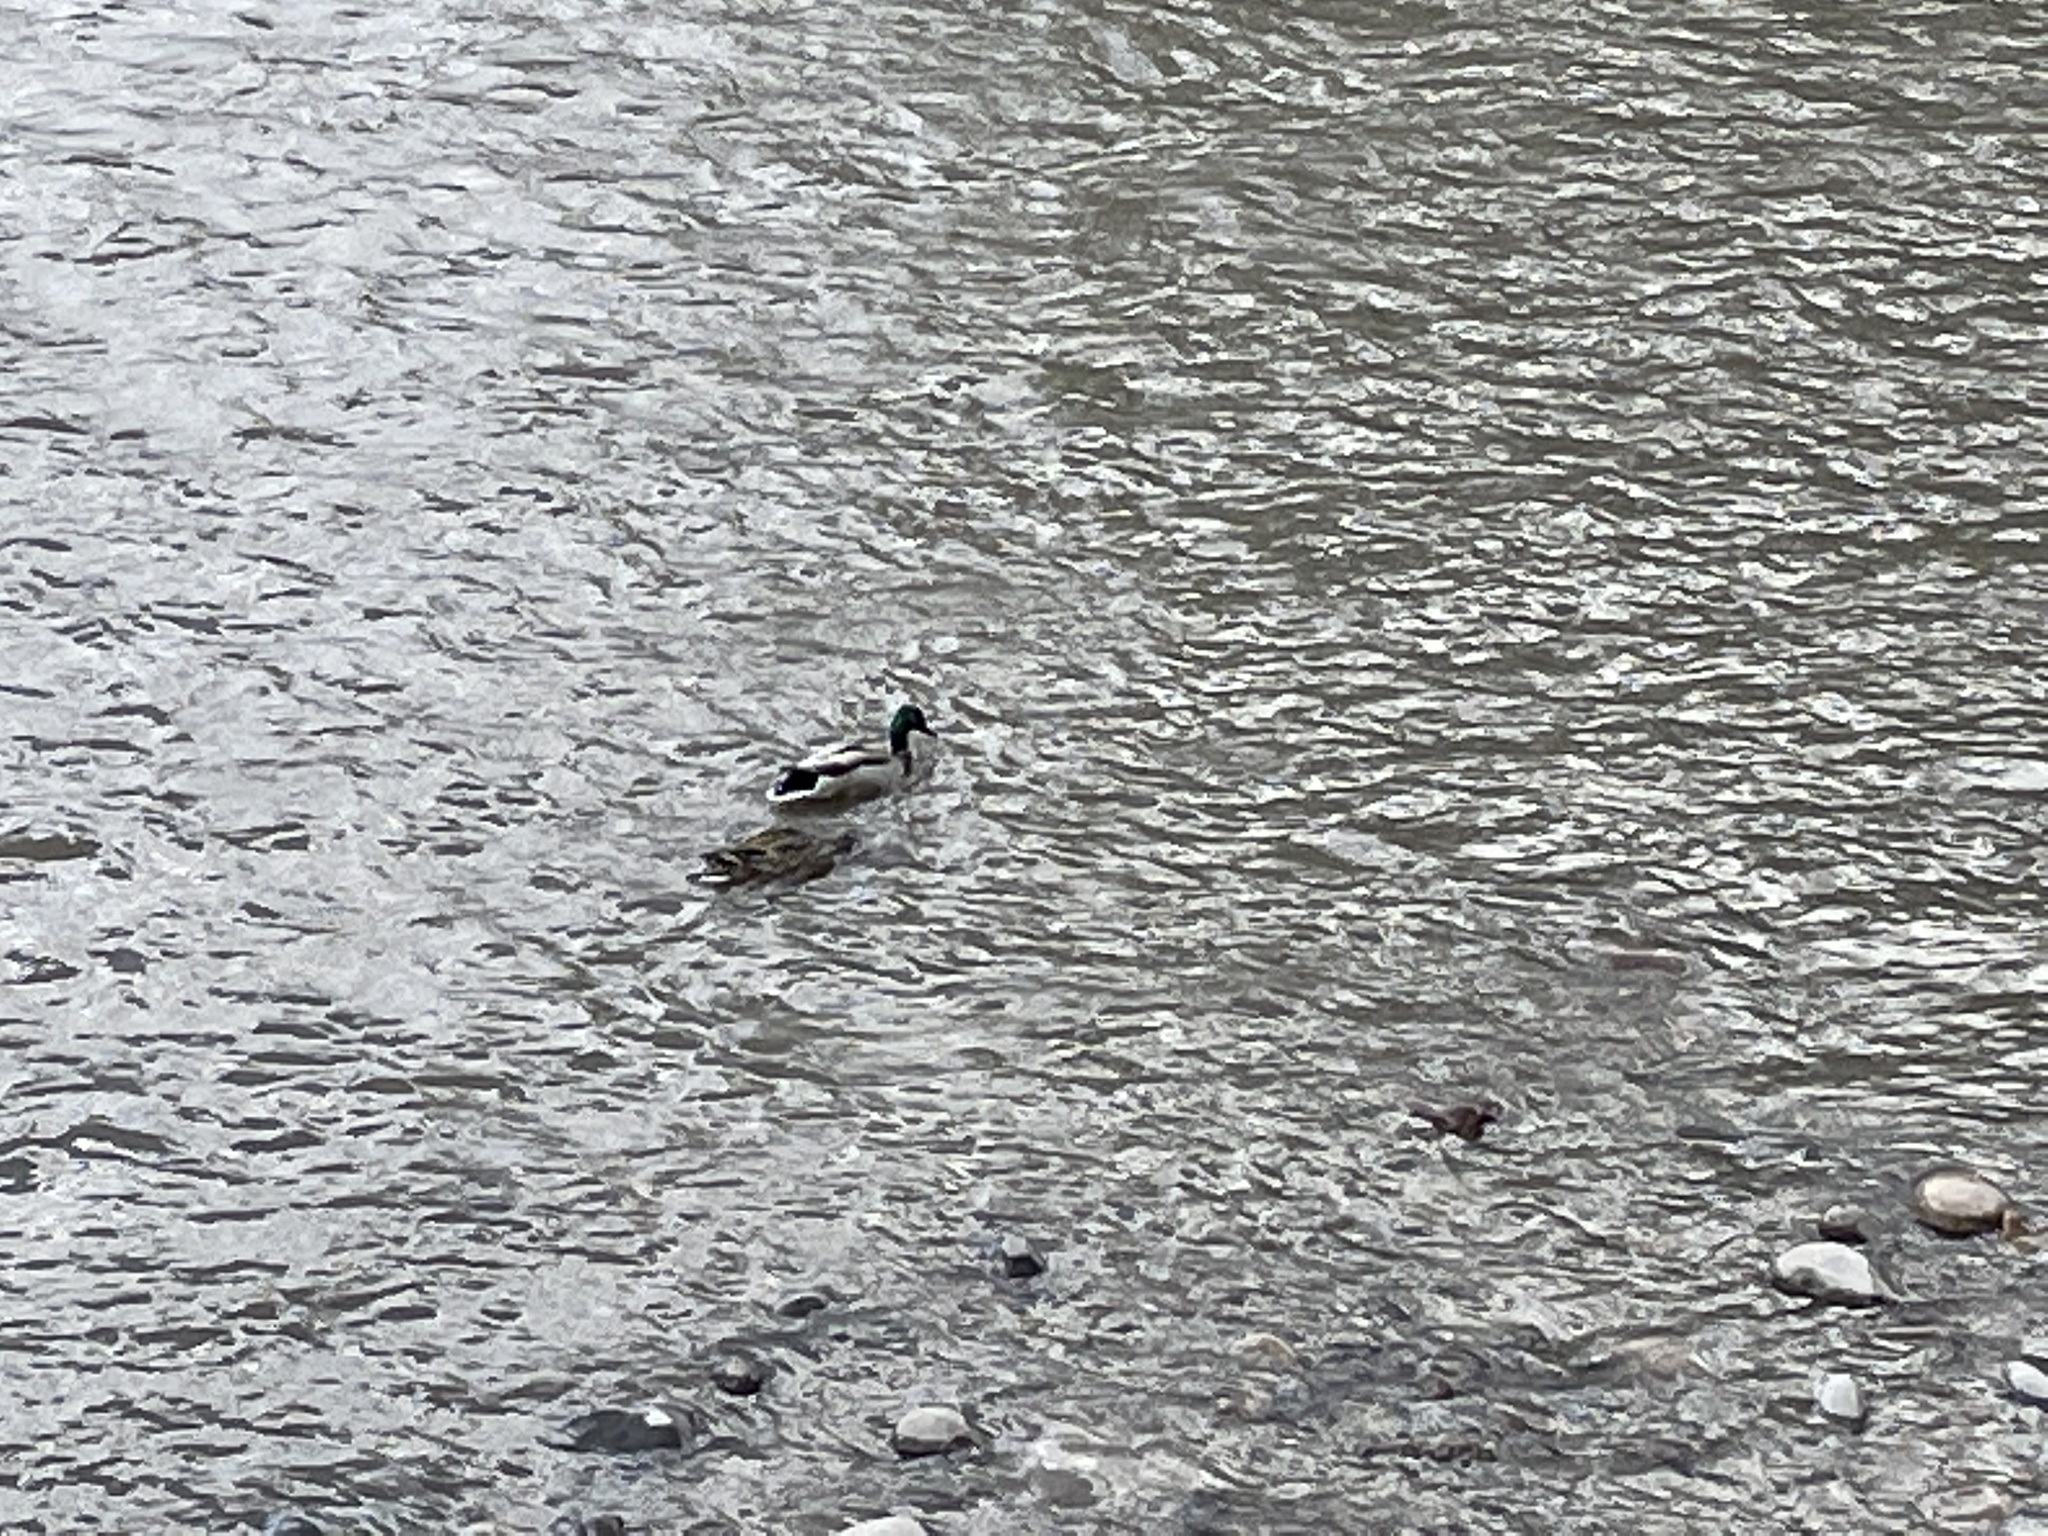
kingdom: Animalia
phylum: Chordata
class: Aves
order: Anseriformes
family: Anatidae
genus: Anas
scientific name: Anas platyrhynchos
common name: Mallard
